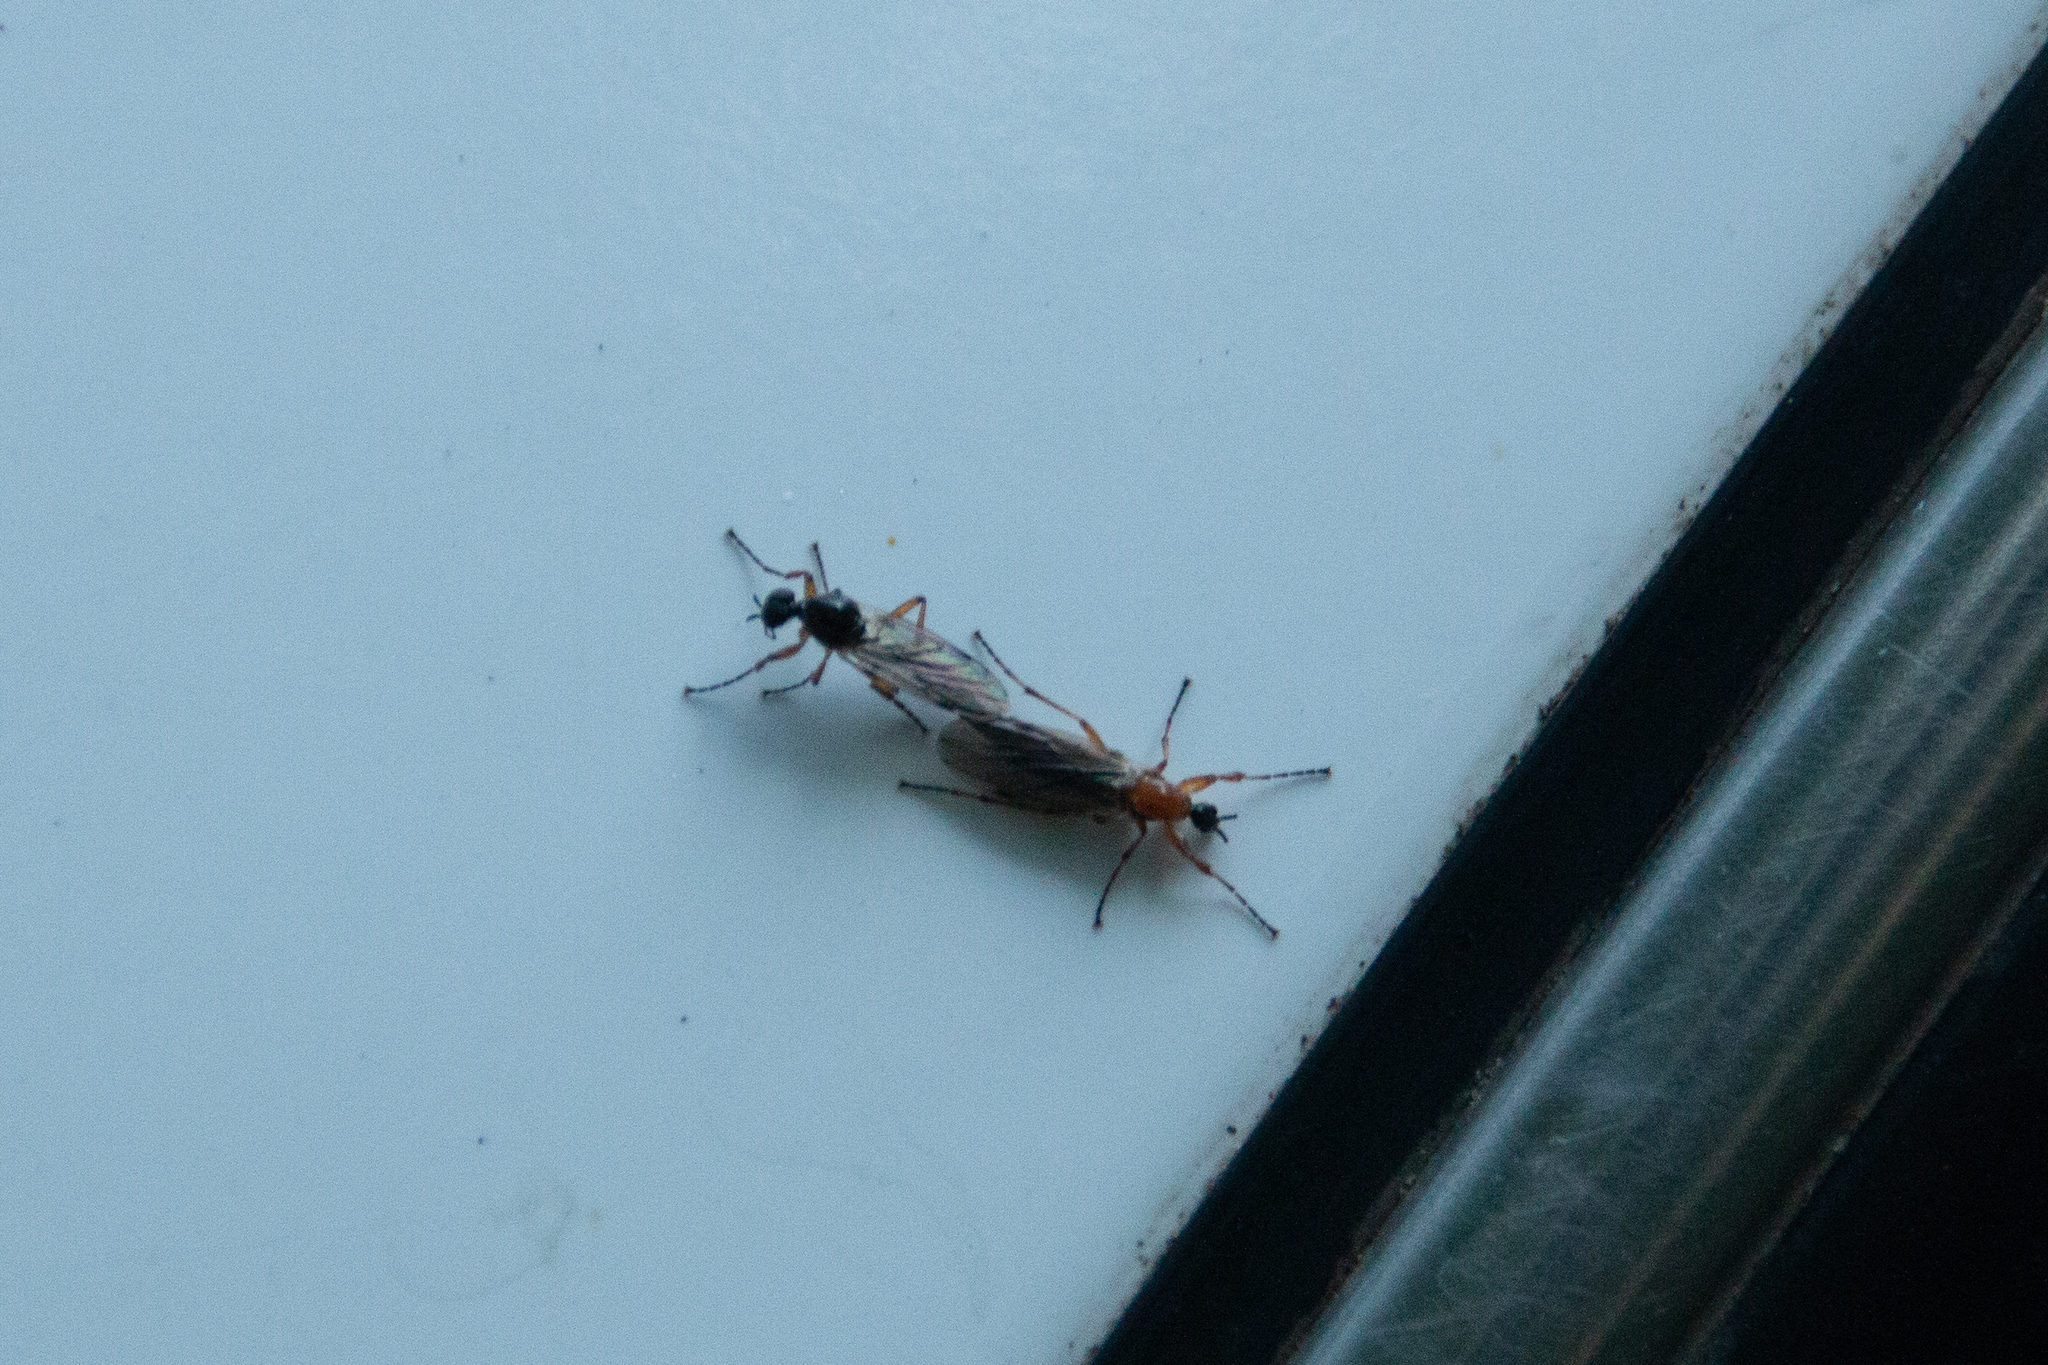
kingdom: Animalia
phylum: Arthropoda
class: Insecta
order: Diptera
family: Bibionidae
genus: Bibio
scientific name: Bibio townesi
